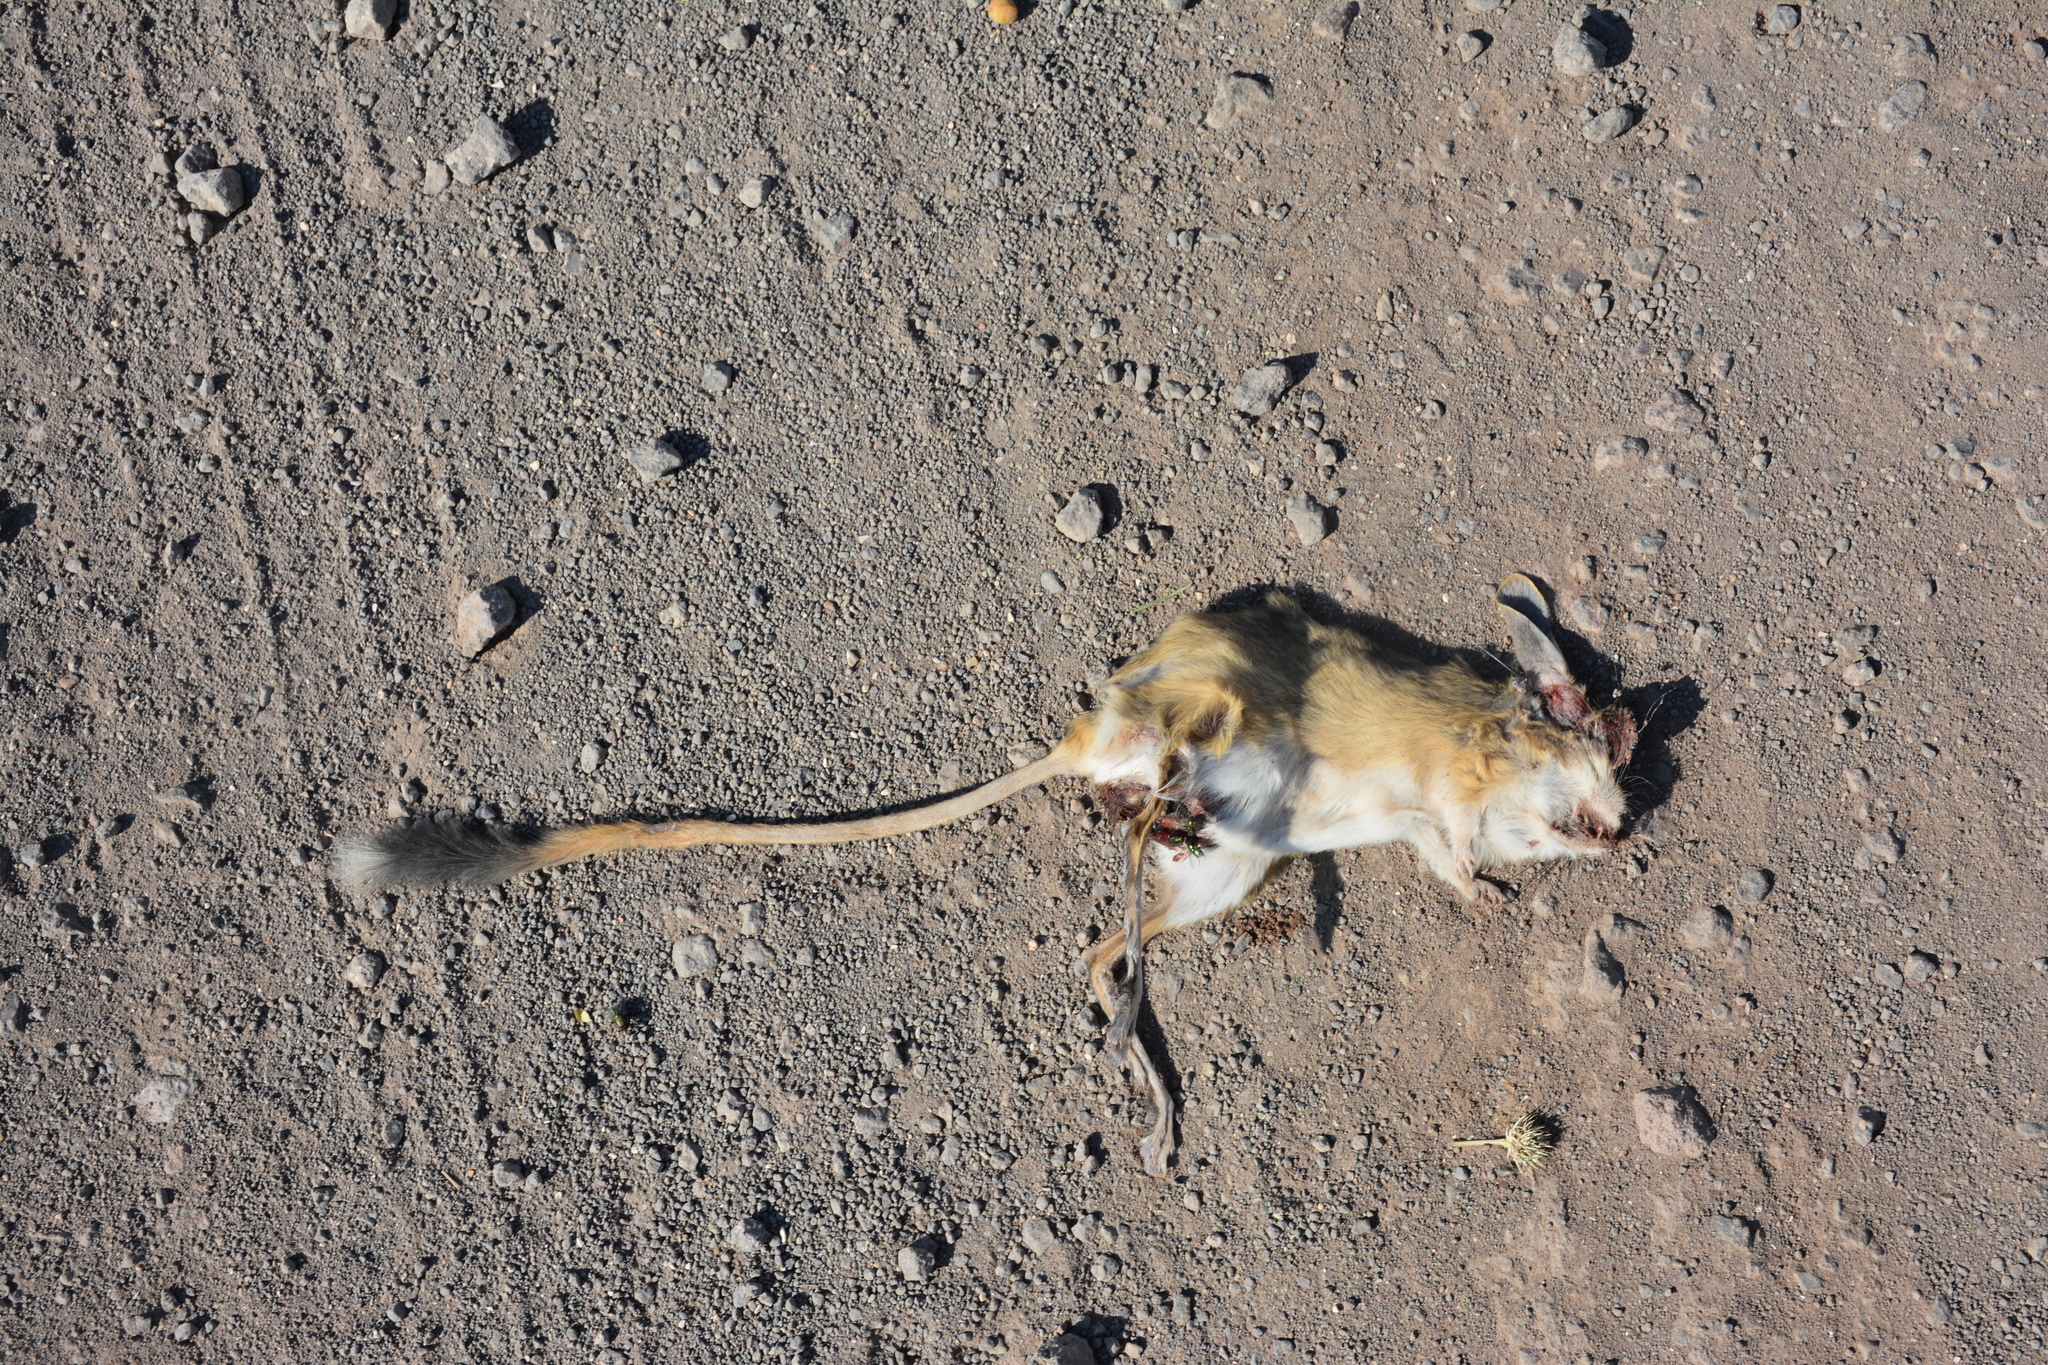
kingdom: Animalia
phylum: Chordata
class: Mammalia
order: Rodentia
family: Dipodidae
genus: Allactaga
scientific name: Allactaga williamsi
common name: Williams s jerboa
